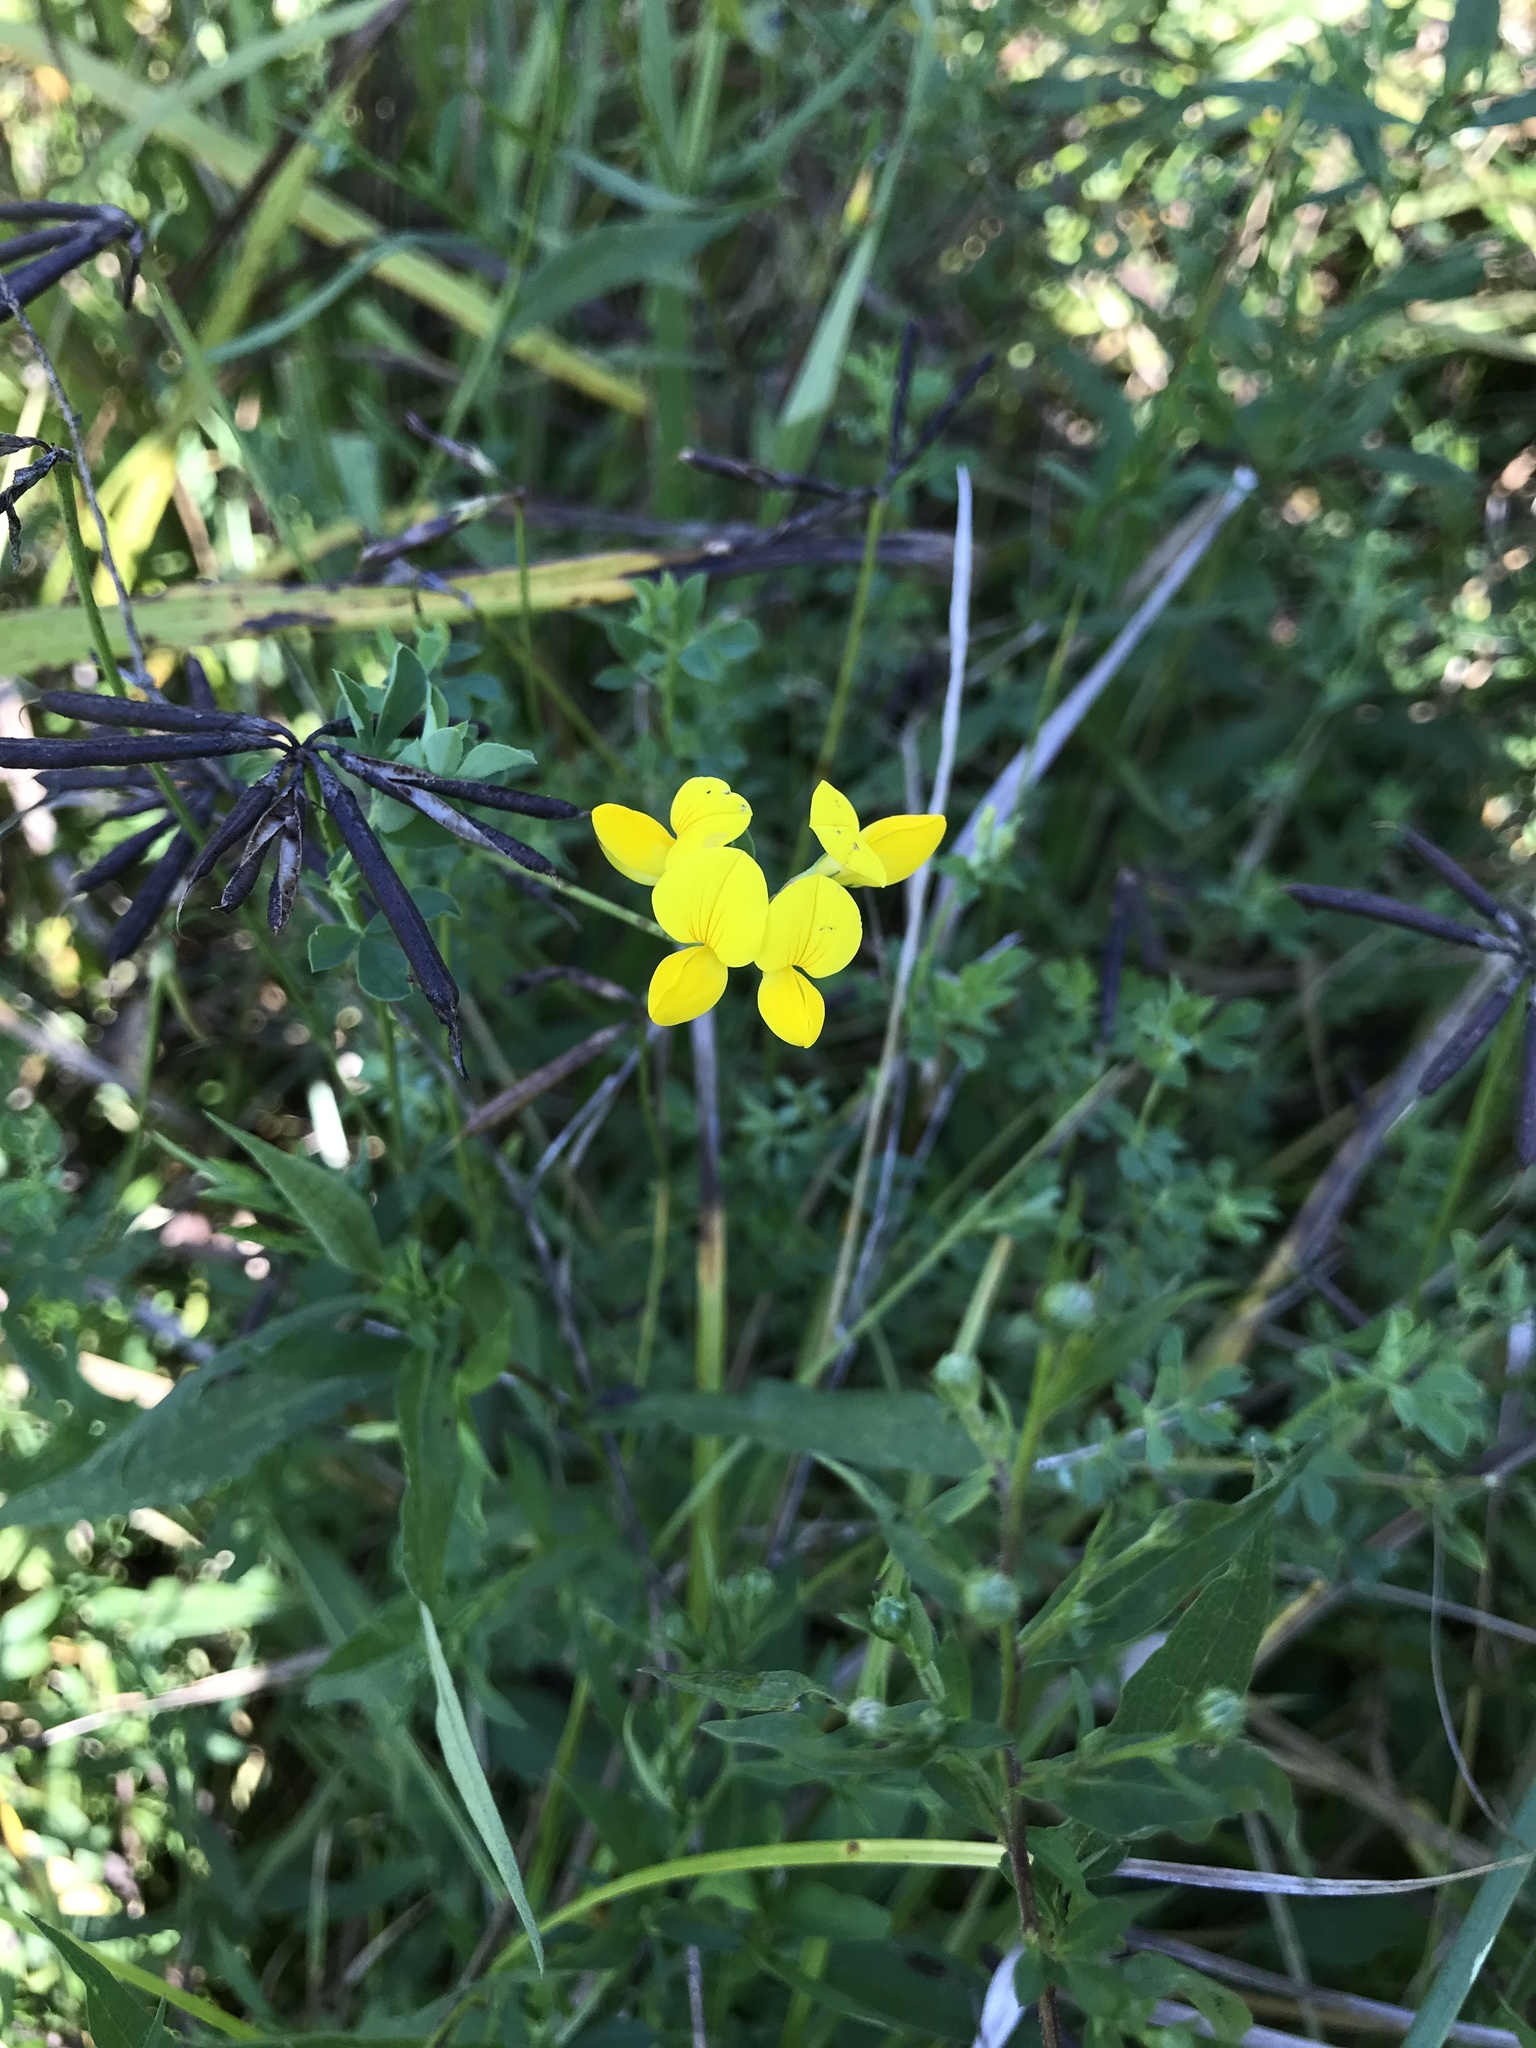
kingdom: Plantae
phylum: Tracheophyta
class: Magnoliopsida
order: Fabales
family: Fabaceae
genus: Lotus
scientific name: Lotus corniculatus
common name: Common bird's-foot-trefoil
